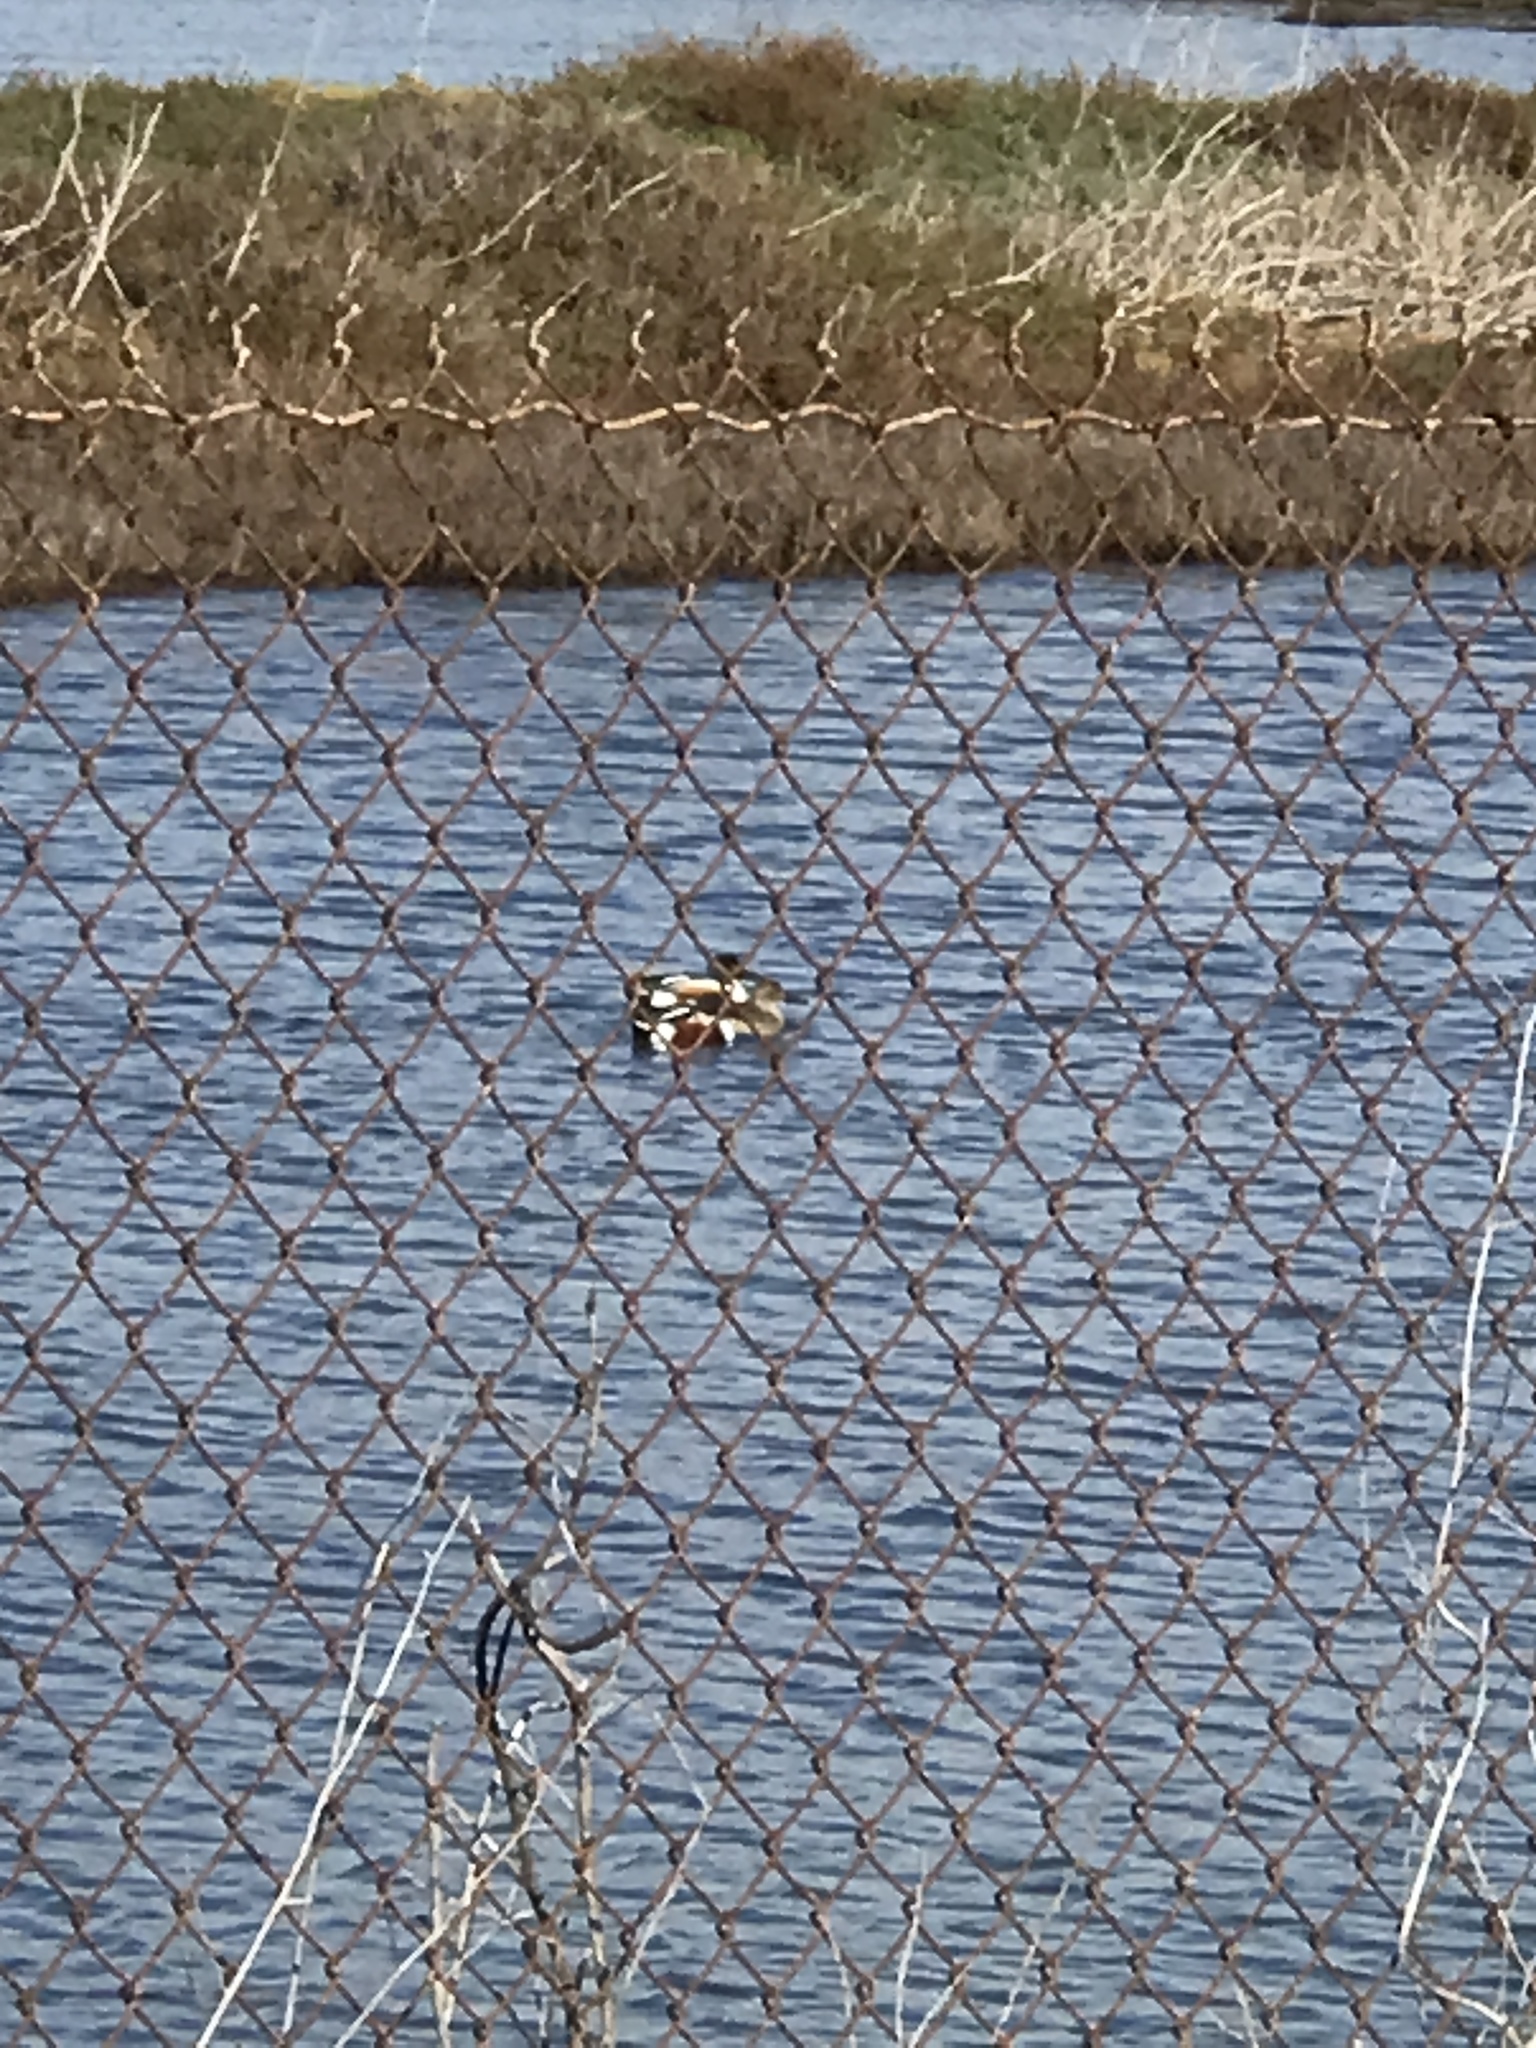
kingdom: Animalia
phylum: Chordata
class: Aves
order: Anseriformes
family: Anatidae
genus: Spatula
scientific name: Spatula clypeata
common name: Northern shoveler
